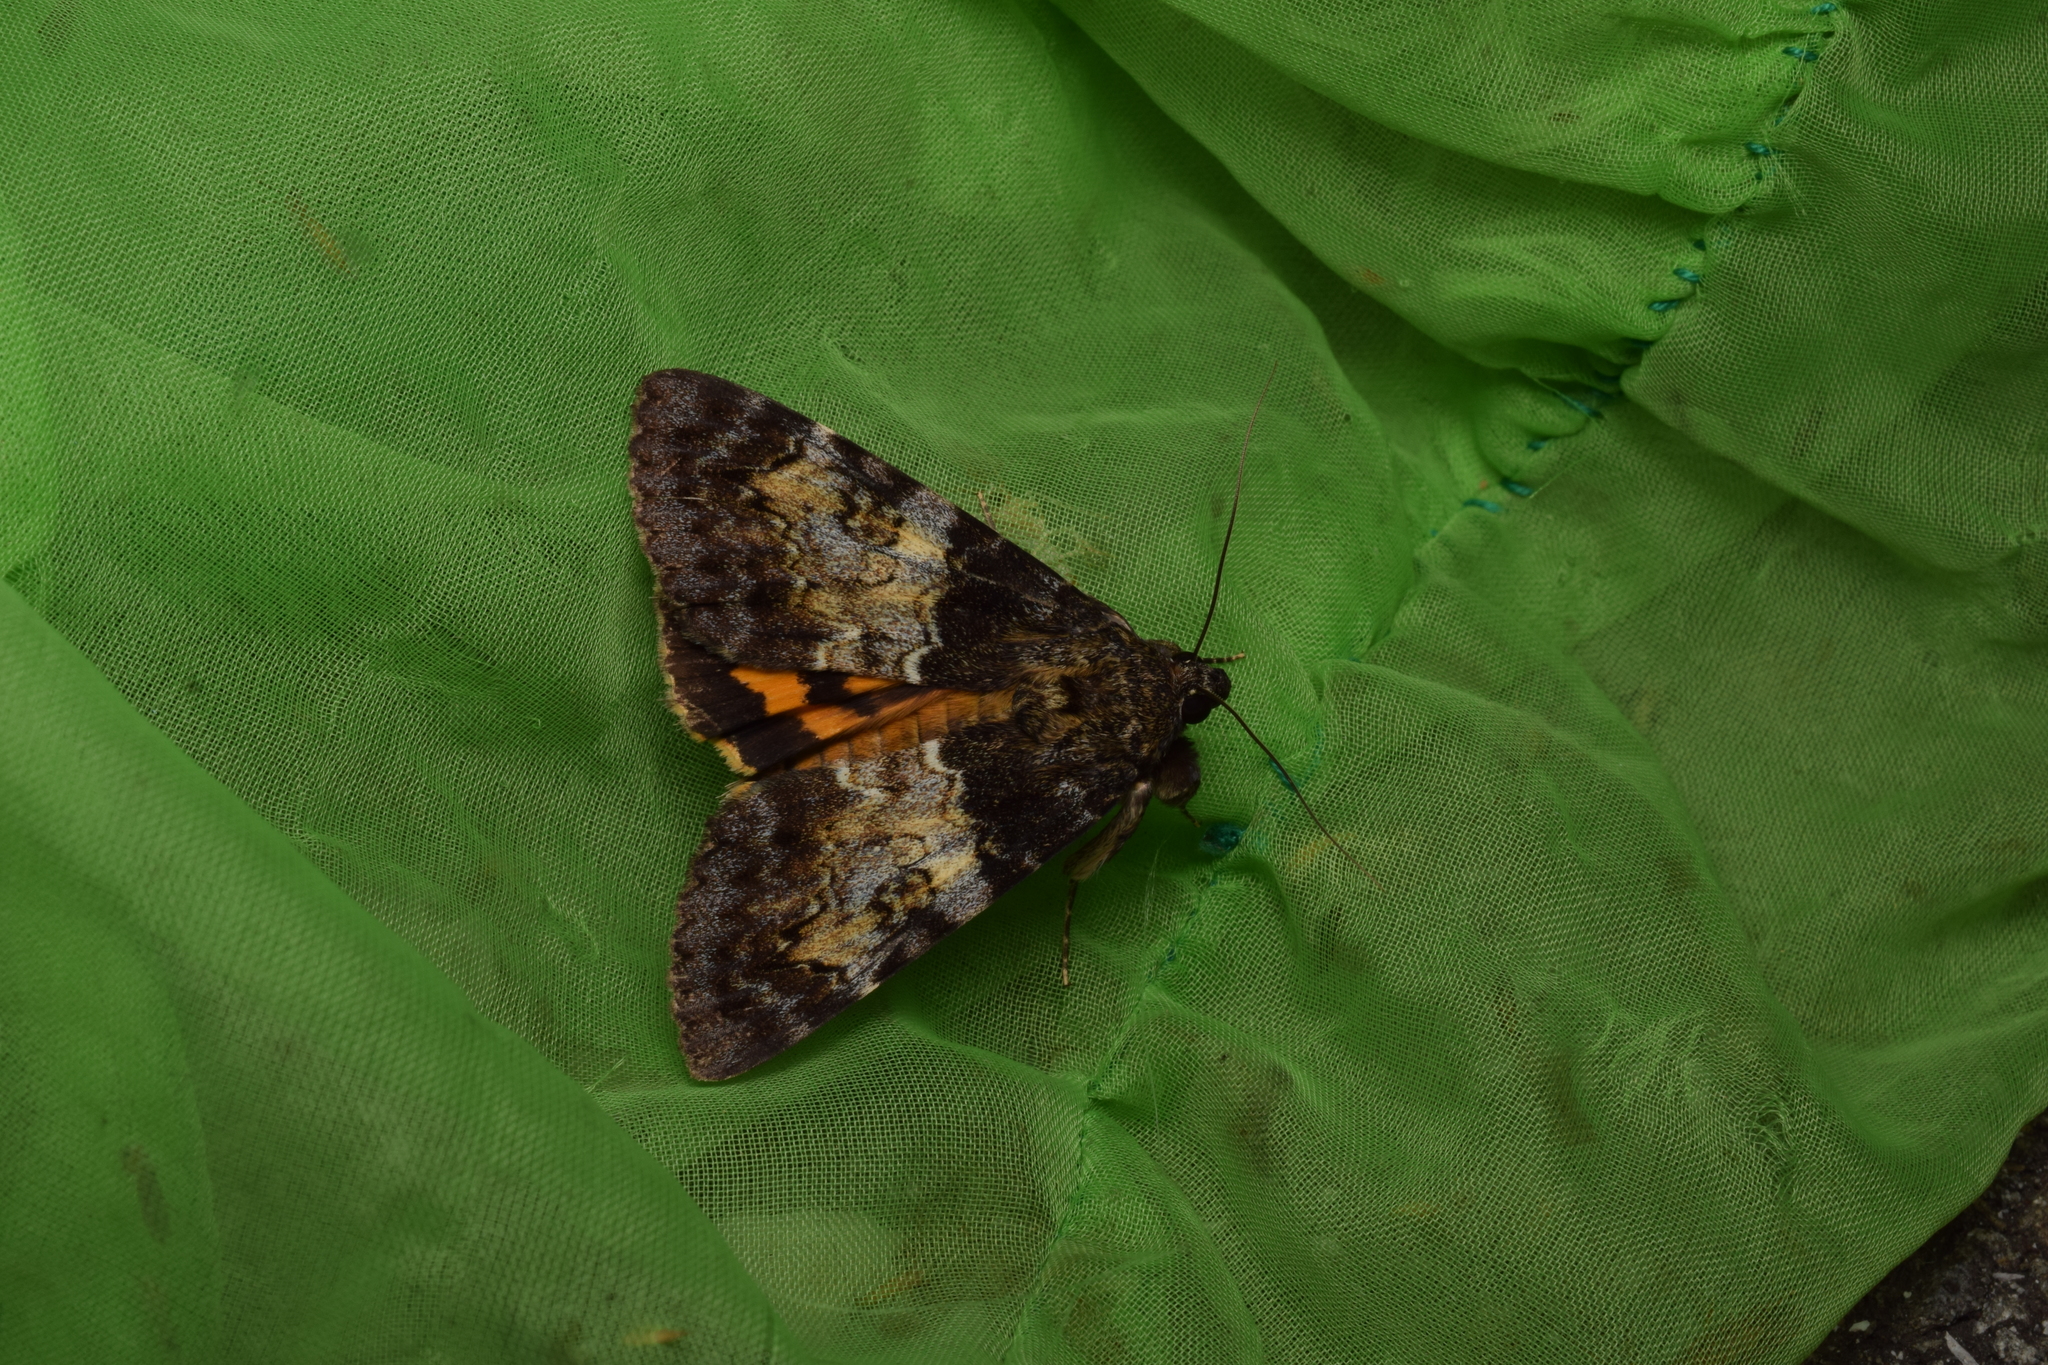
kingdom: Animalia
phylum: Arthropoda
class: Insecta
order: Lepidoptera
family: Erebidae
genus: Catocala
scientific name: Catocala praegnax
